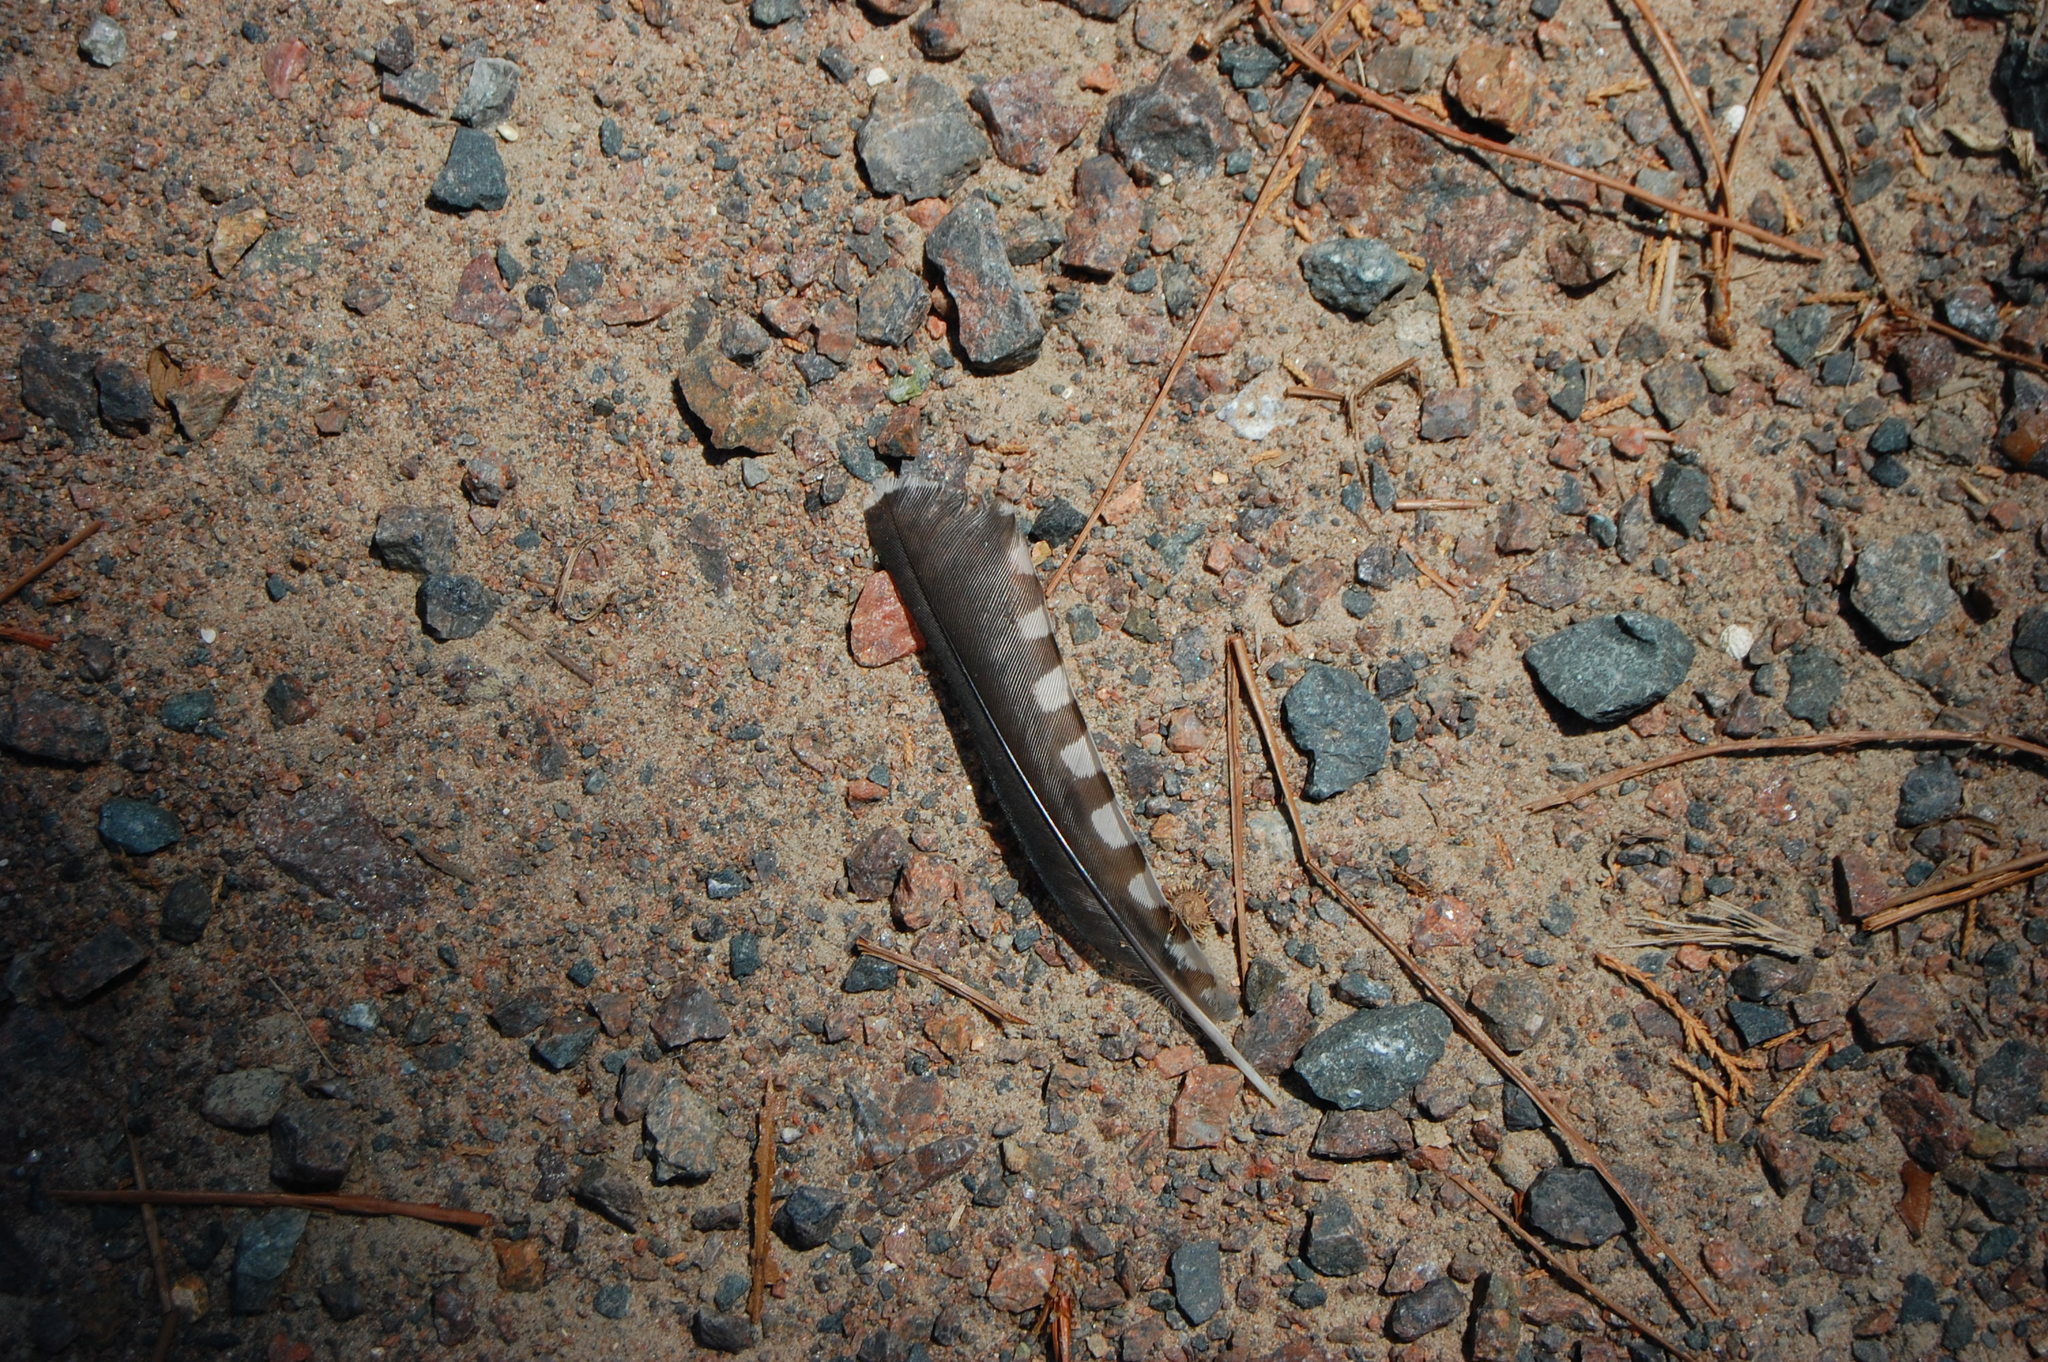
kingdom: Animalia
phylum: Chordata
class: Aves
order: Piciformes
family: Picidae
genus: Melanerpes
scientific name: Melanerpes carolinus
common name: Red-bellied woodpecker
